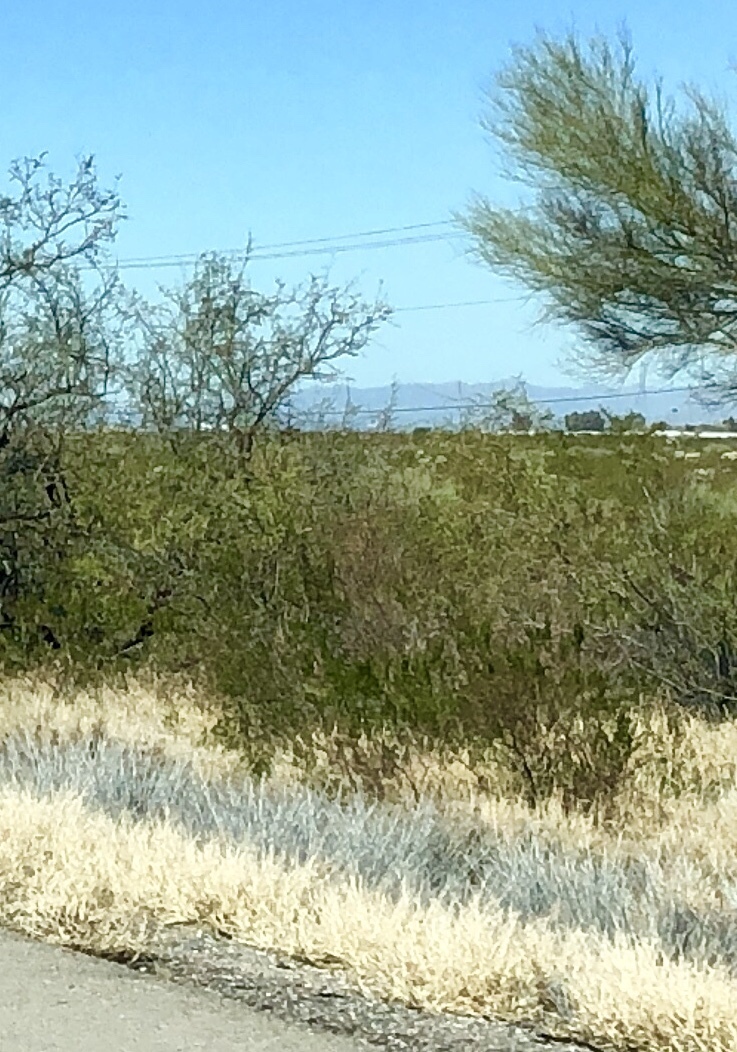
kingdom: Plantae
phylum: Tracheophyta
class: Magnoliopsida
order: Zygophyllales
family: Zygophyllaceae
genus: Larrea
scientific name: Larrea tridentata
